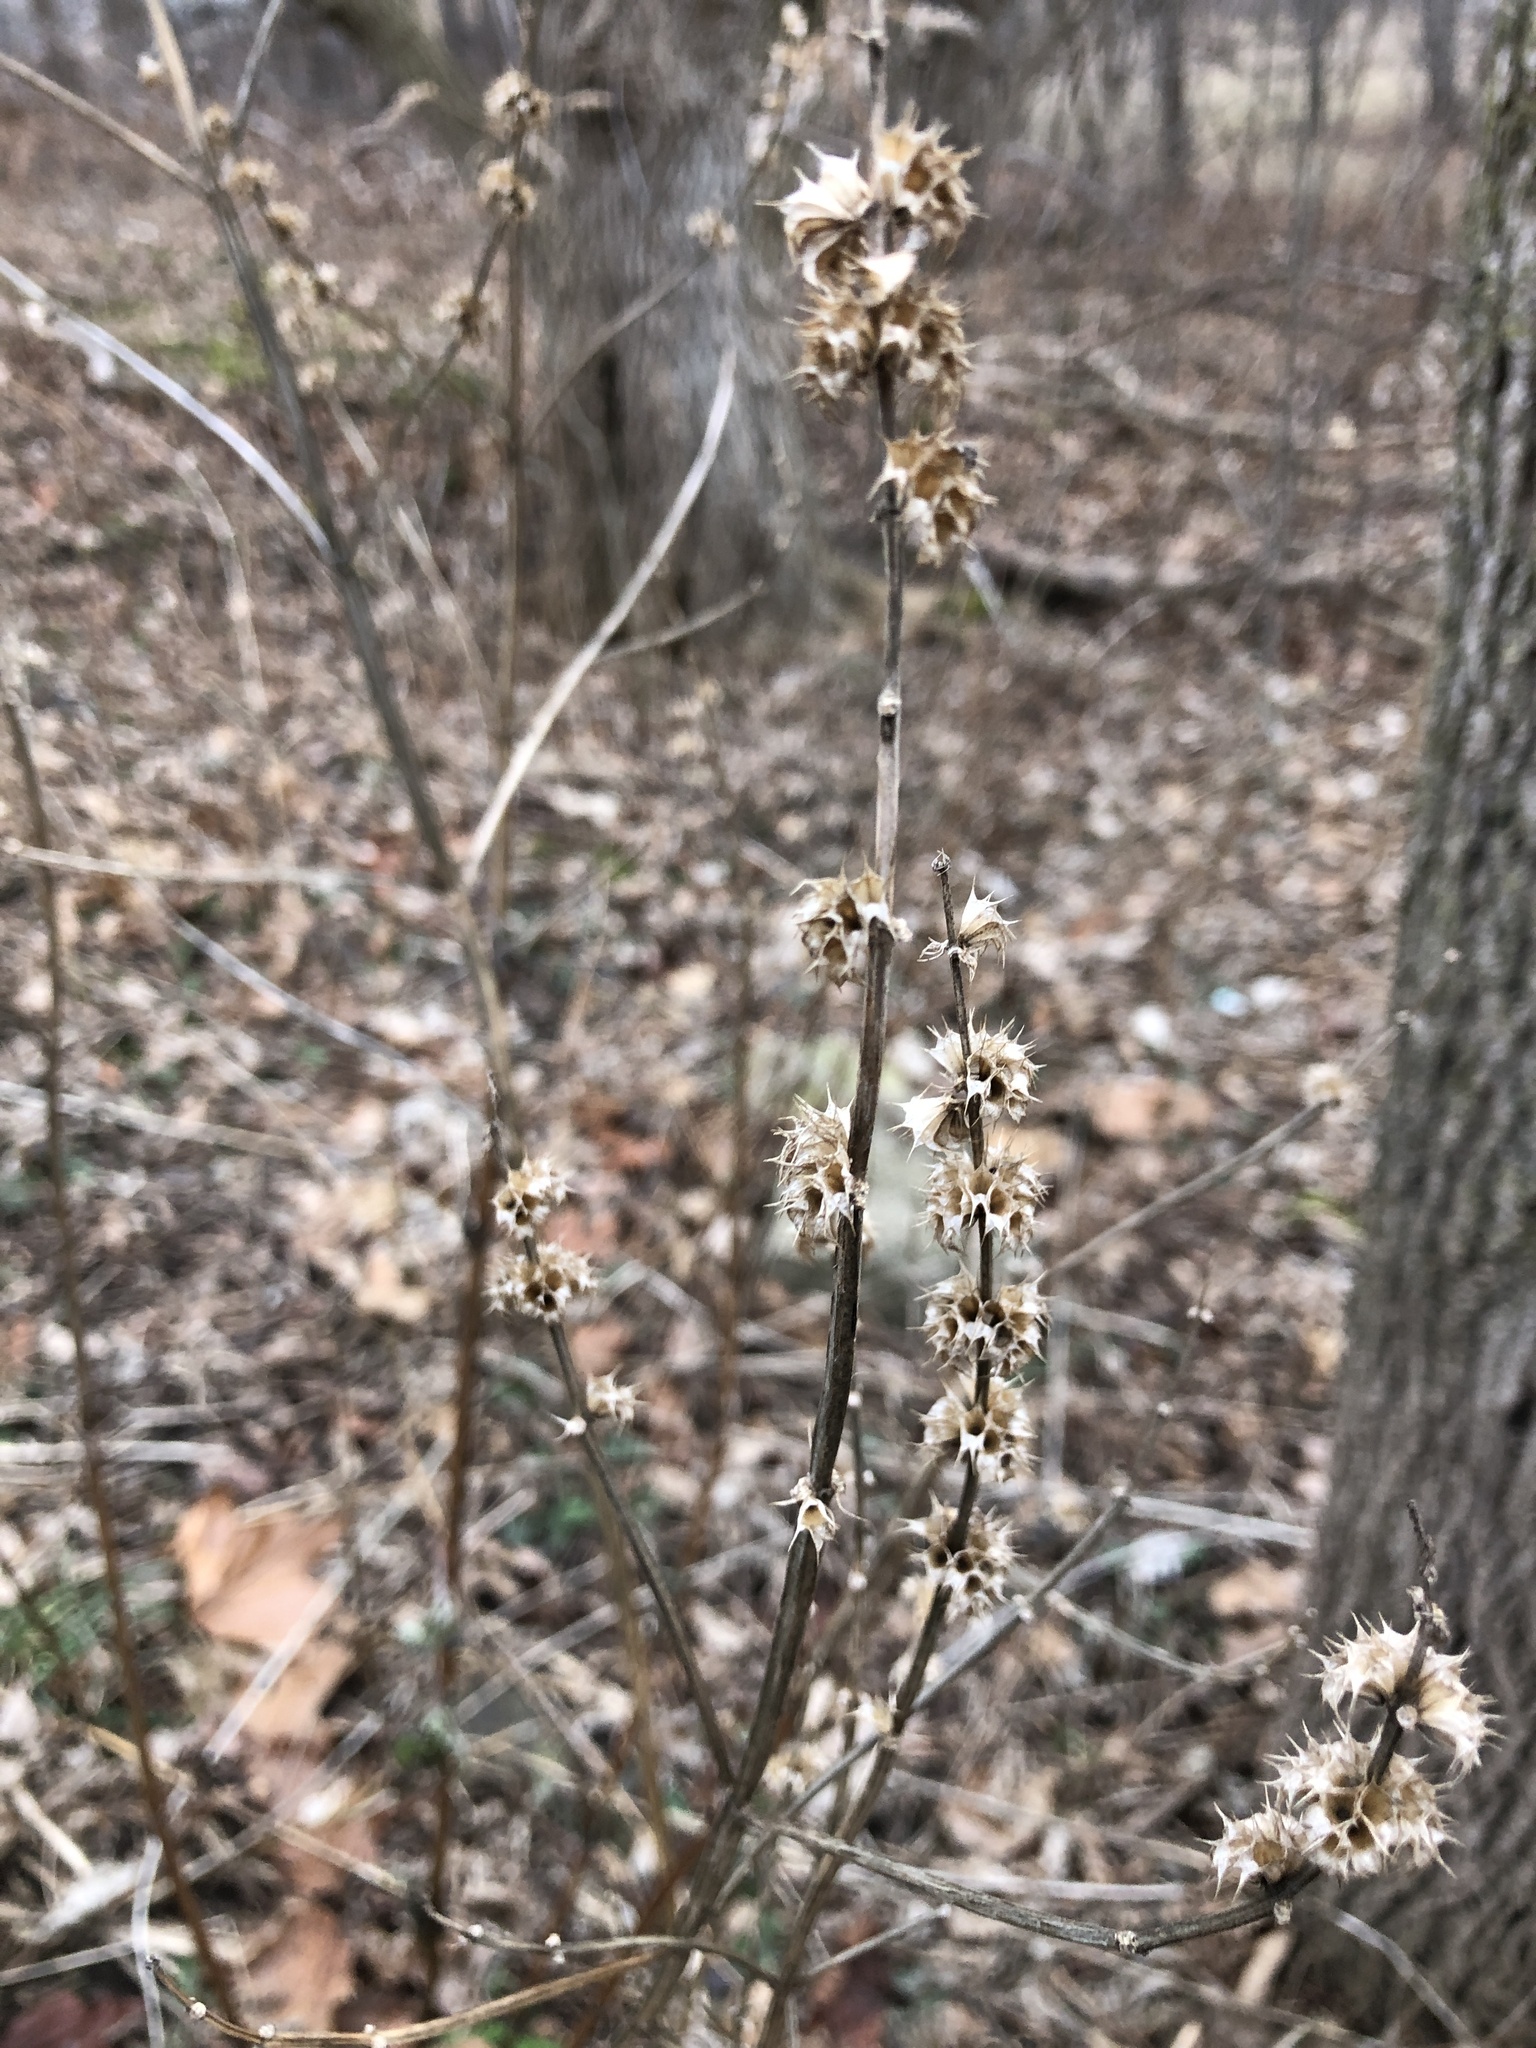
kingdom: Plantae
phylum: Tracheophyta
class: Magnoliopsida
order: Lamiales
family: Lamiaceae
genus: Leonurus
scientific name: Leonurus cardiaca
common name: Motherwort
